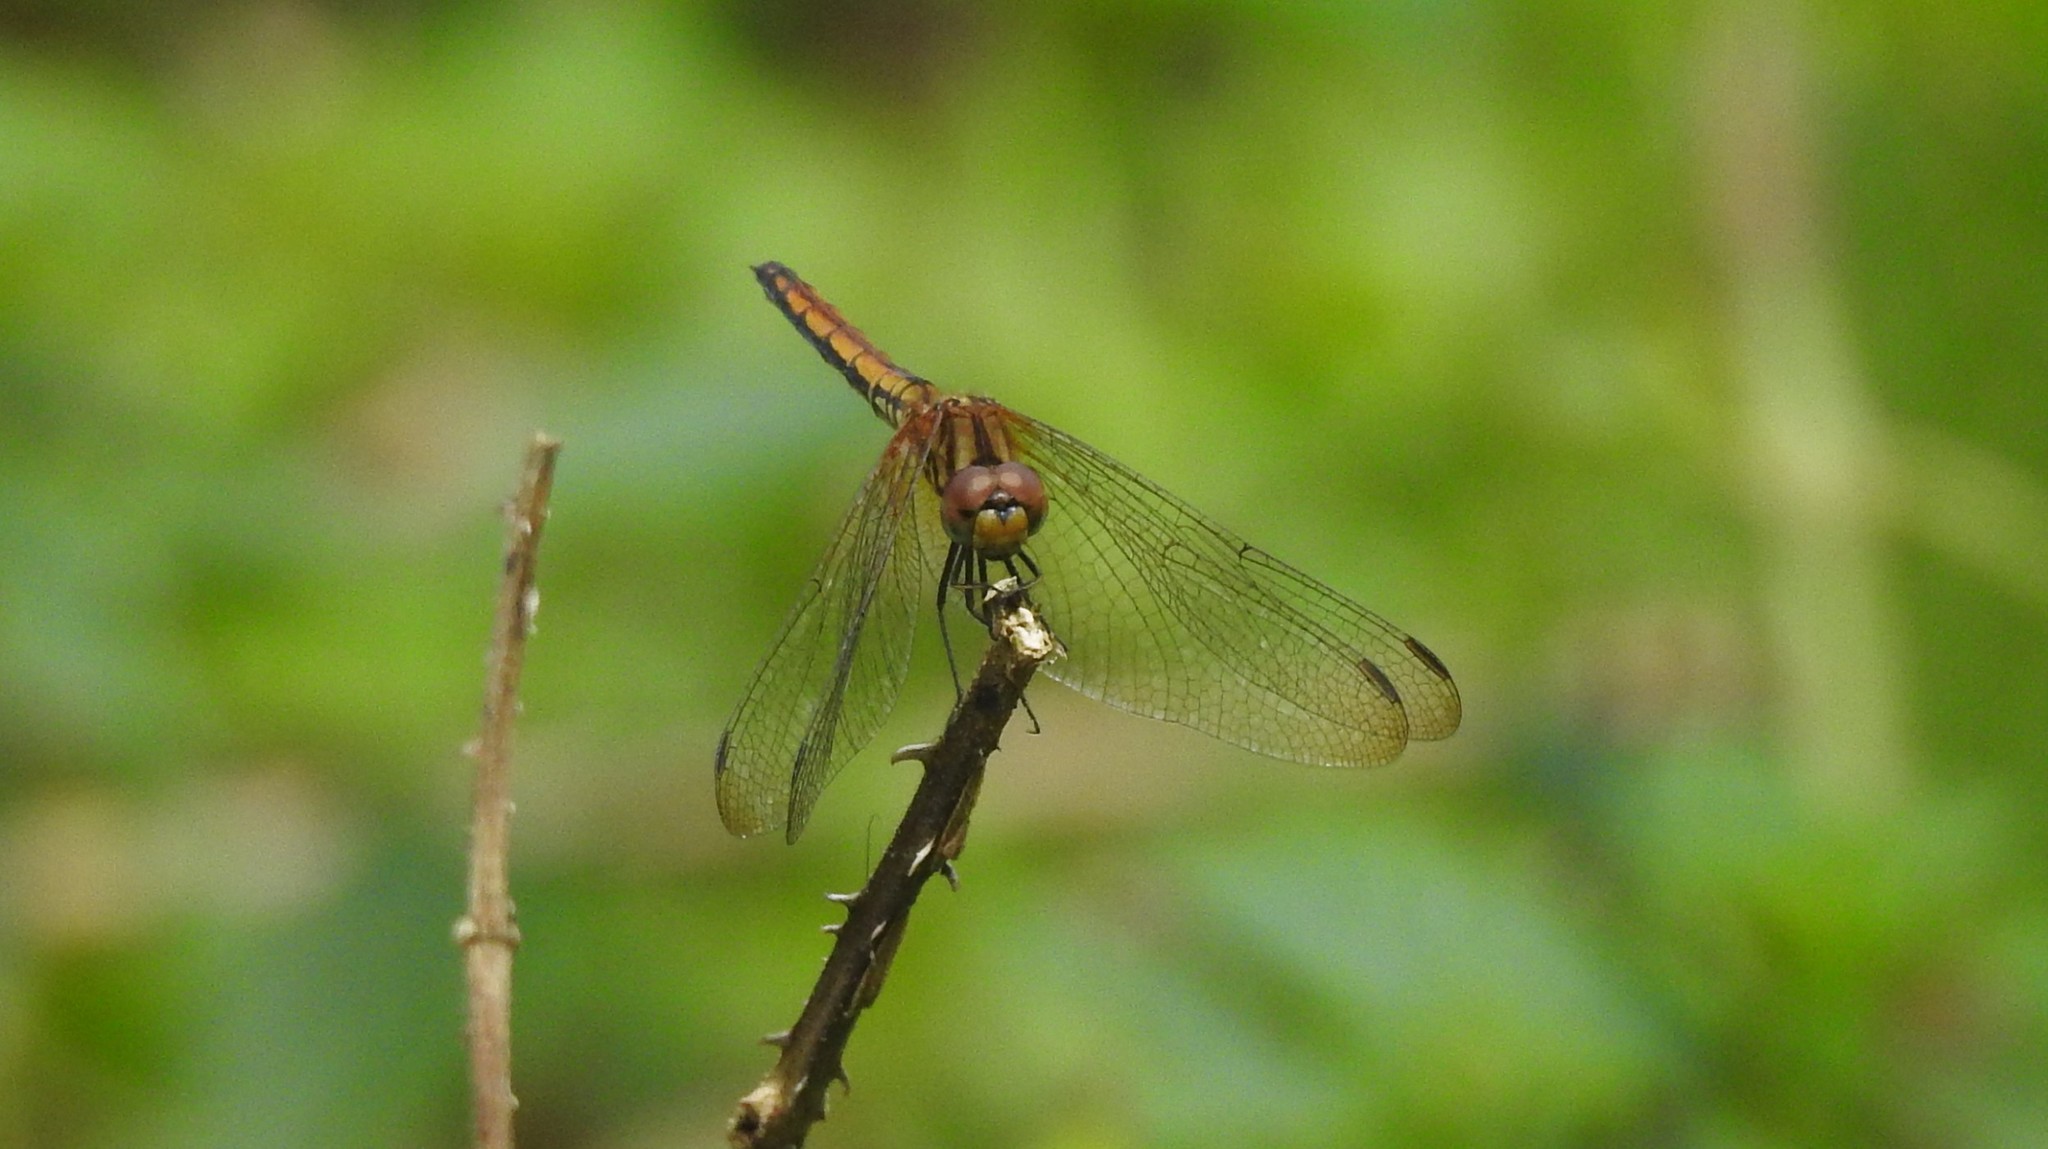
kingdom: Animalia
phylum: Arthropoda
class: Insecta
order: Odonata
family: Libellulidae
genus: Trithemis
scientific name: Trithemis aurora
